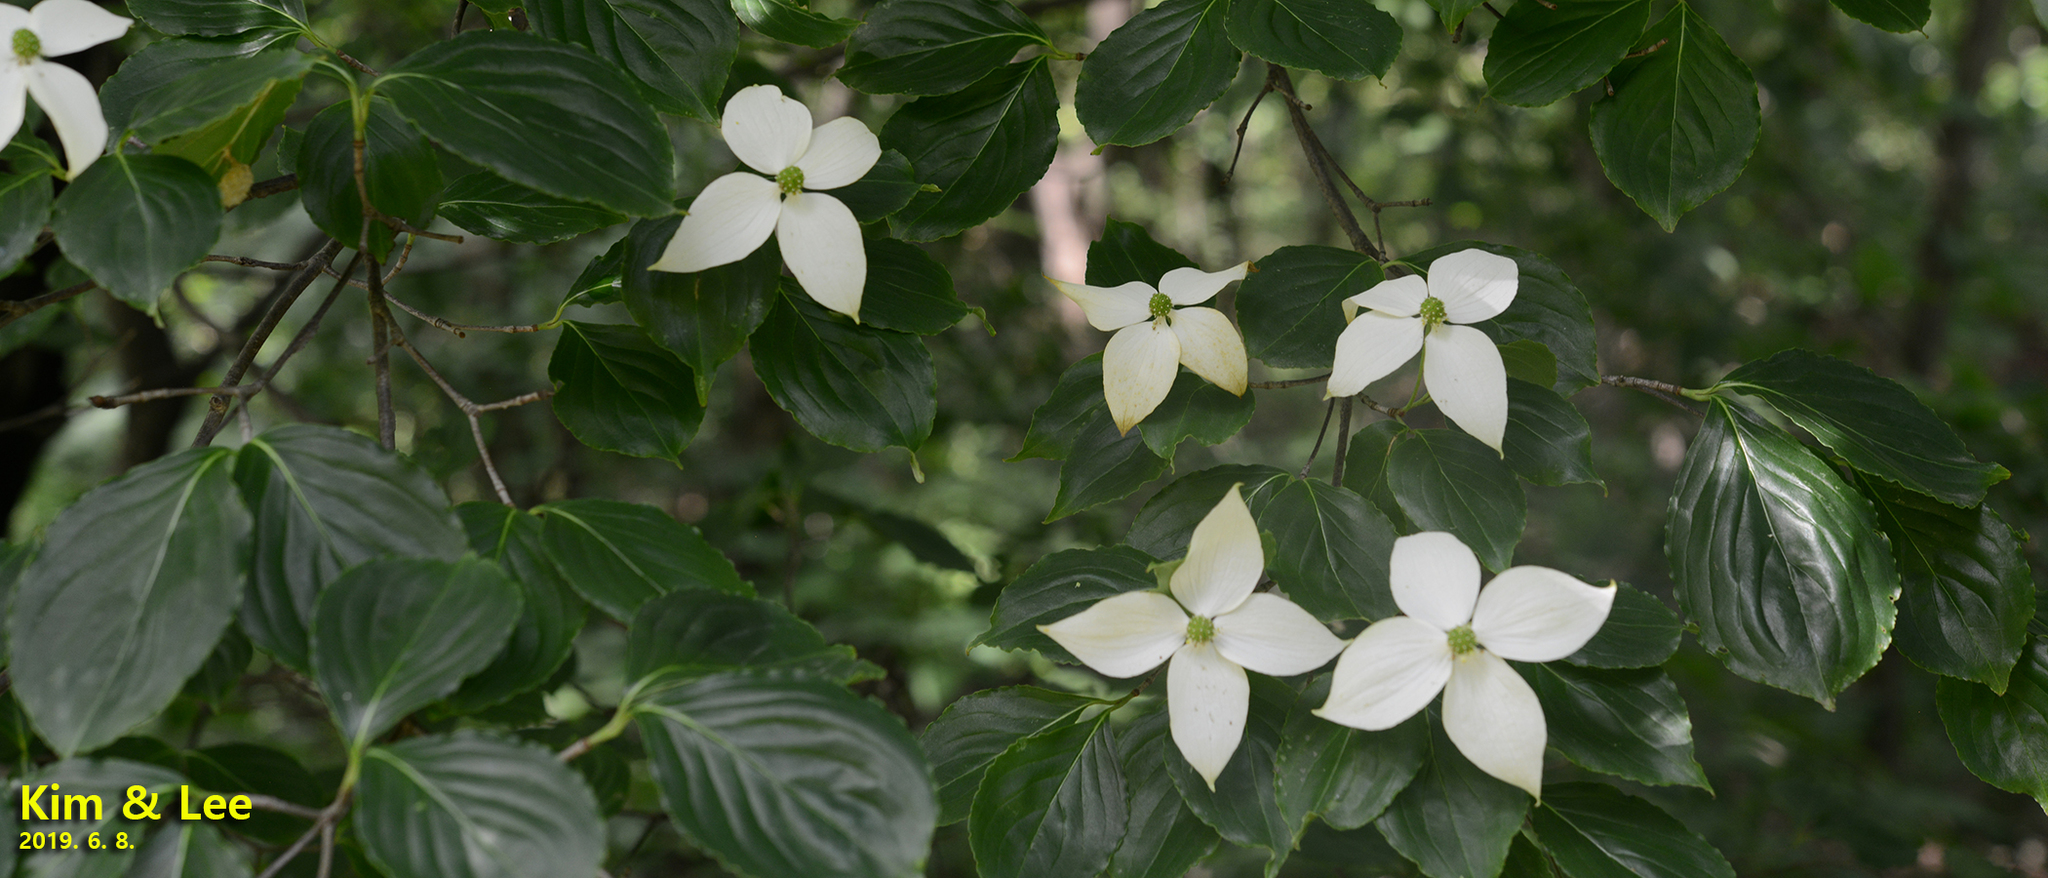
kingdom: Plantae
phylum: Tracheophyta
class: Magnoliopsida
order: Cornales
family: Cornaceae
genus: Cornus
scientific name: Cornus kousa
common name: Japanese dogwood
